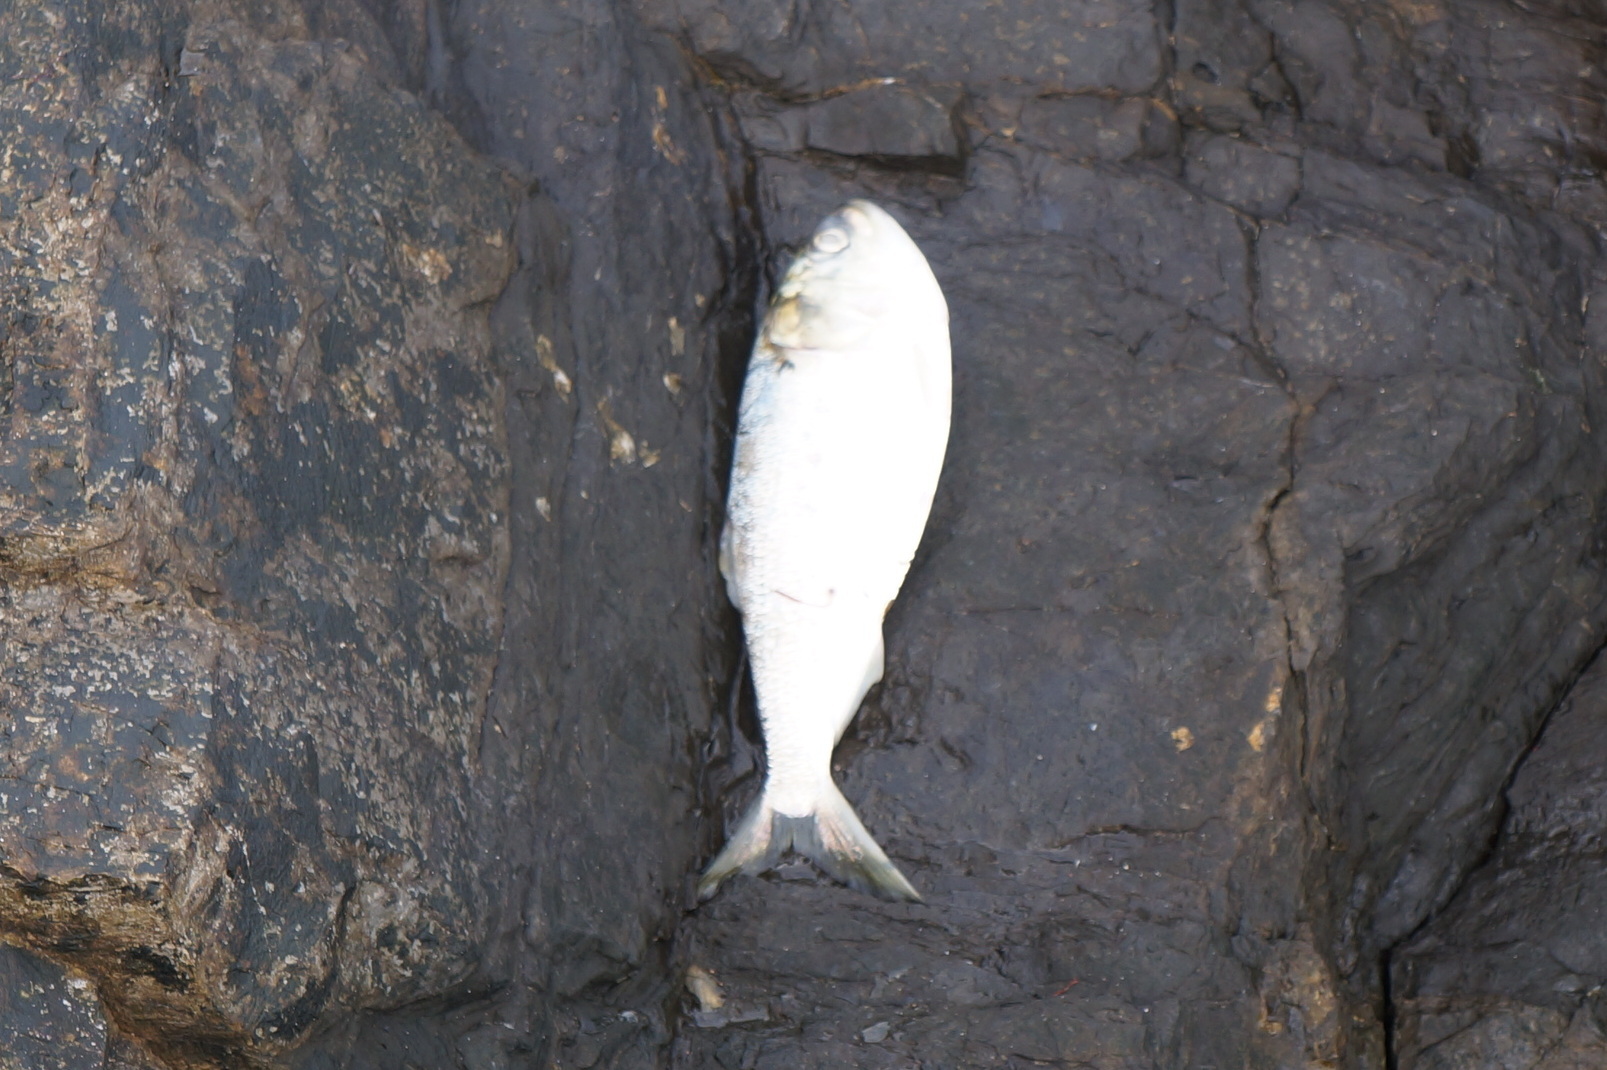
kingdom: Animalia
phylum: Chordata
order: Clupeiformes
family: Clupeidae
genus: Brevoortia
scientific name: Brevoortia tyrannus
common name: Atlantic menhaden
